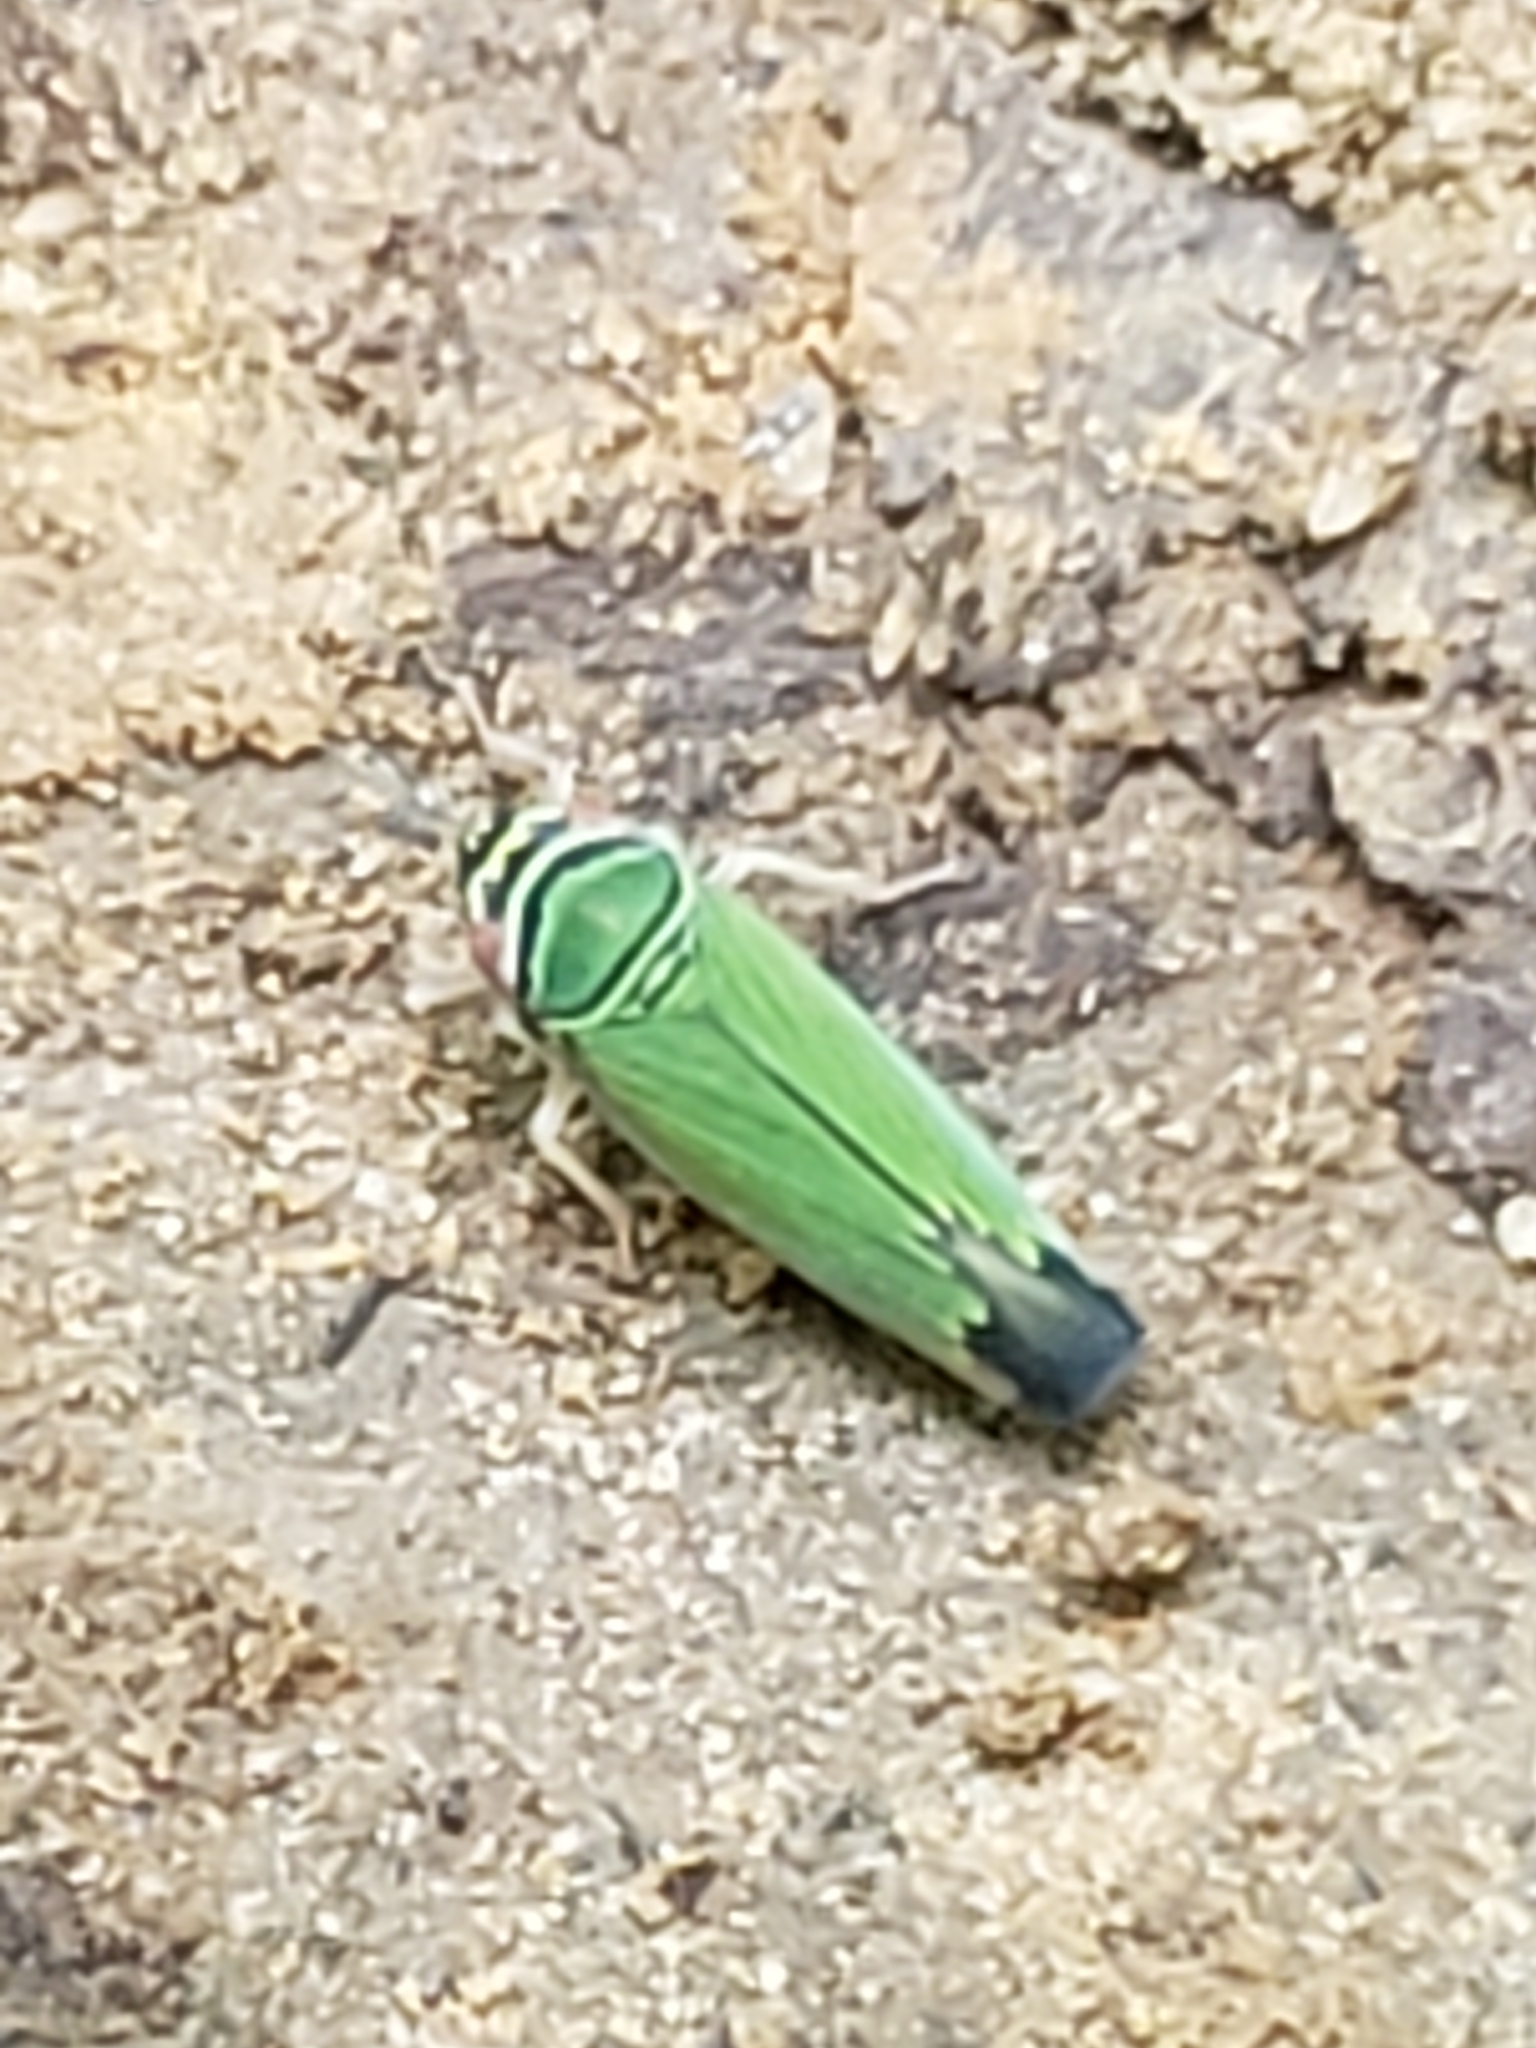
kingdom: Animalia
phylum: Arthropoda
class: Insecta
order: Hemiptera
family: Cicadellidae
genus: Tylozygus
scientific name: Tylozygus geometricus
